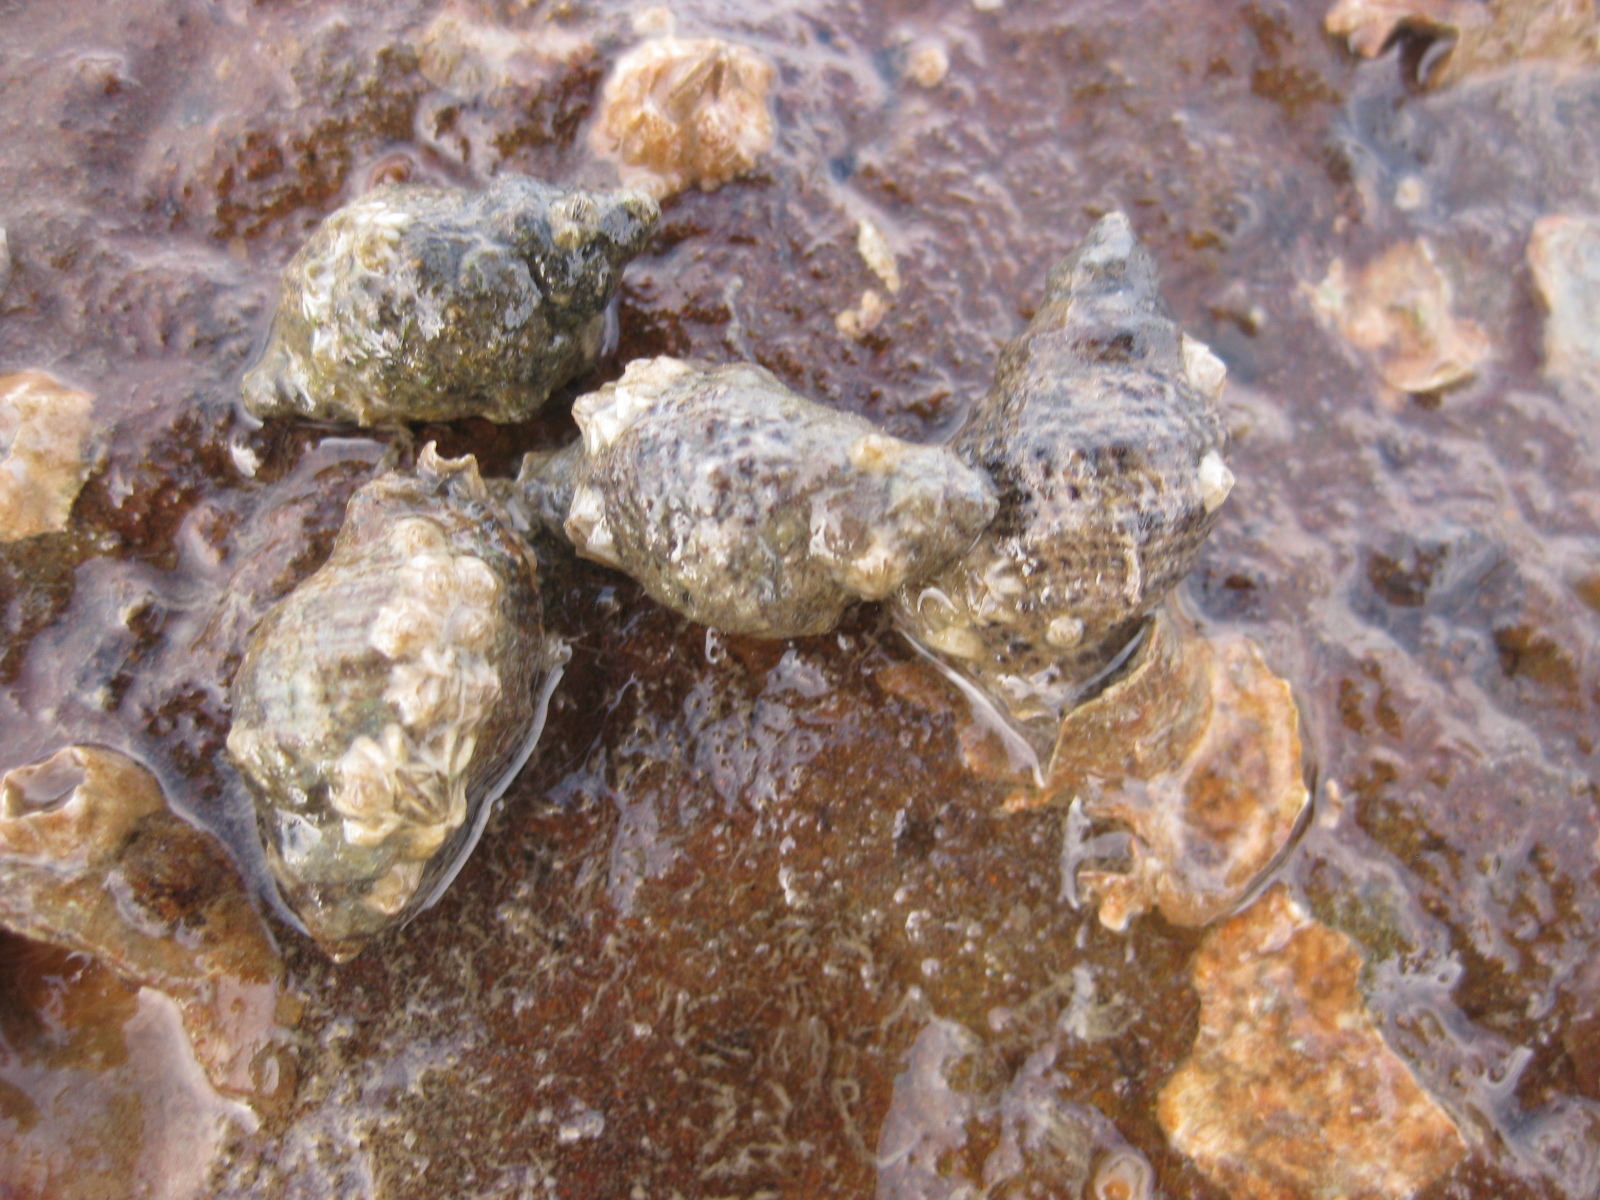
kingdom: Animalia
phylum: Mollusca
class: Gastropoda
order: Neogastropoda
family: Muricidae
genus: Haustrum
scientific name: Haustrum scobina
